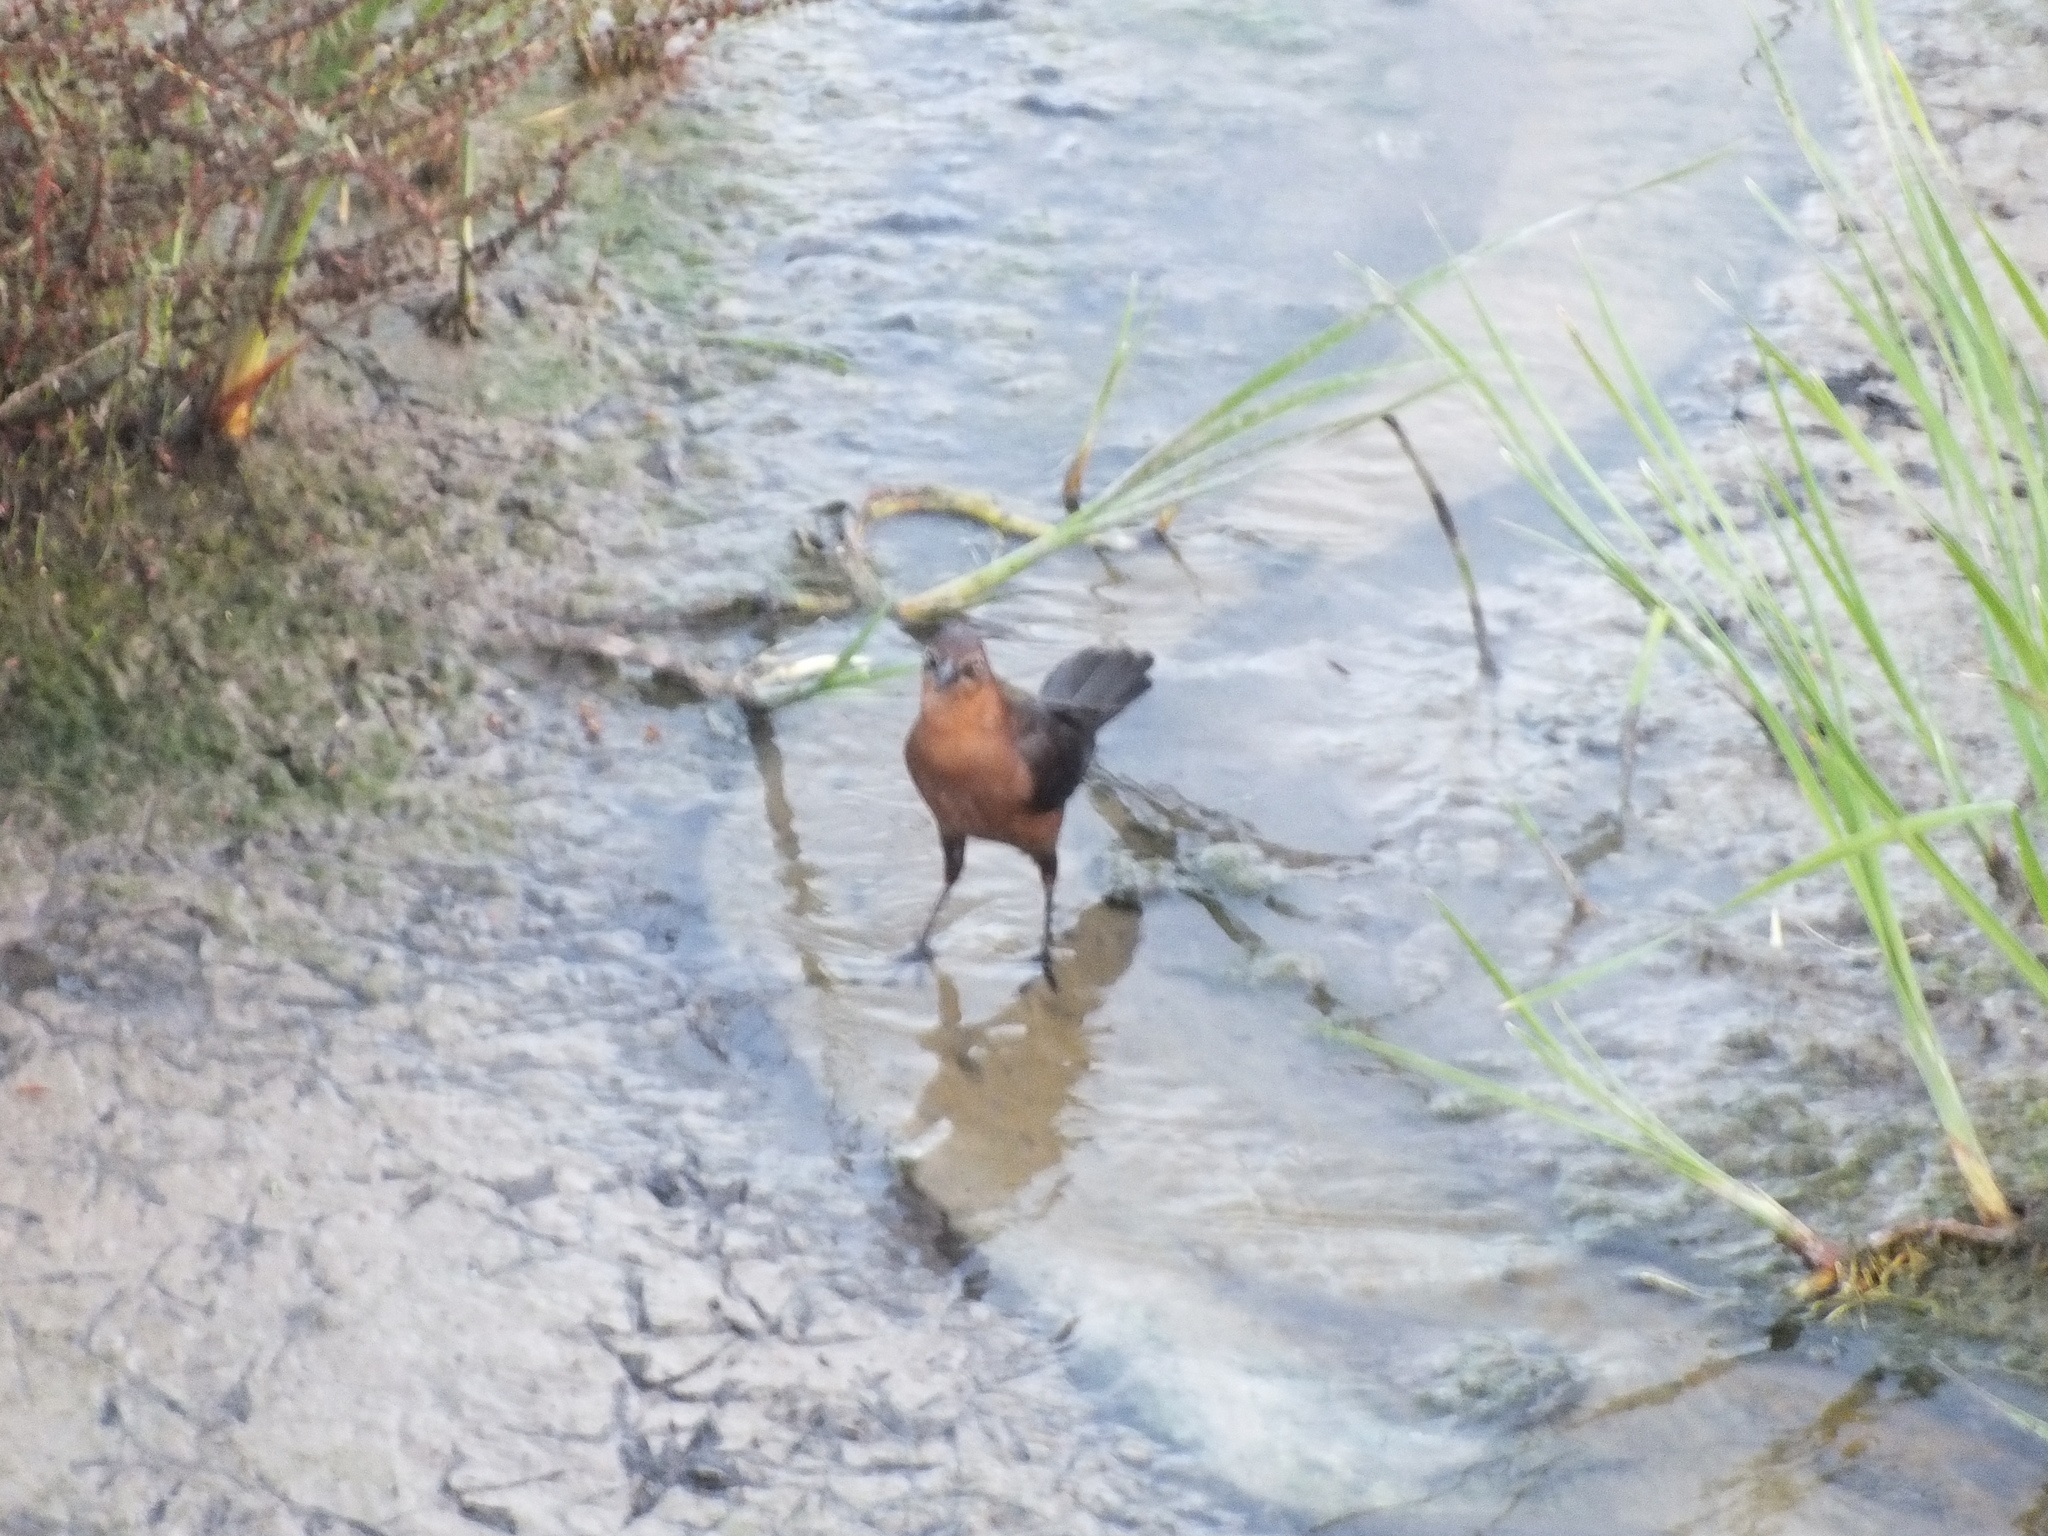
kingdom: Animalia
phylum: Chordata
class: Aves
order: Passeriformes
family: Icteridae
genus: Quiscalus
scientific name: Quiscalus mexicanus
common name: Great-tailed grackle
